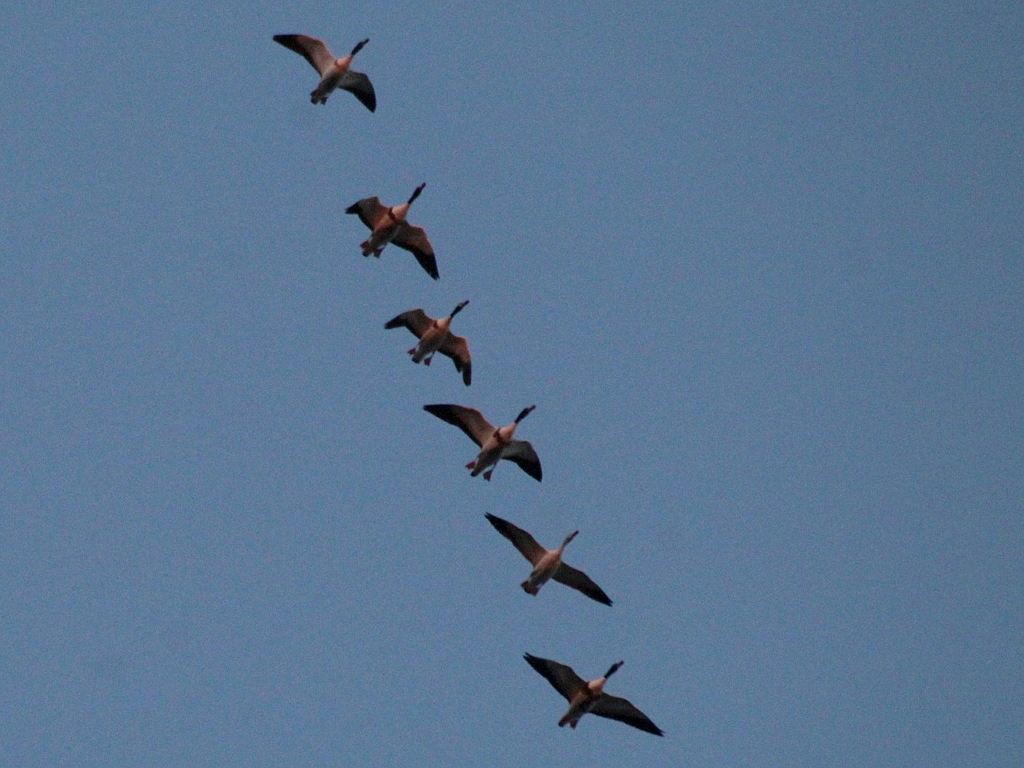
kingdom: Animalia
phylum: Chordata
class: Aves
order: Anseriformes
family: Anatidae
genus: Tadorna
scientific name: Tadorna tadorna
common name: Common shelduck
